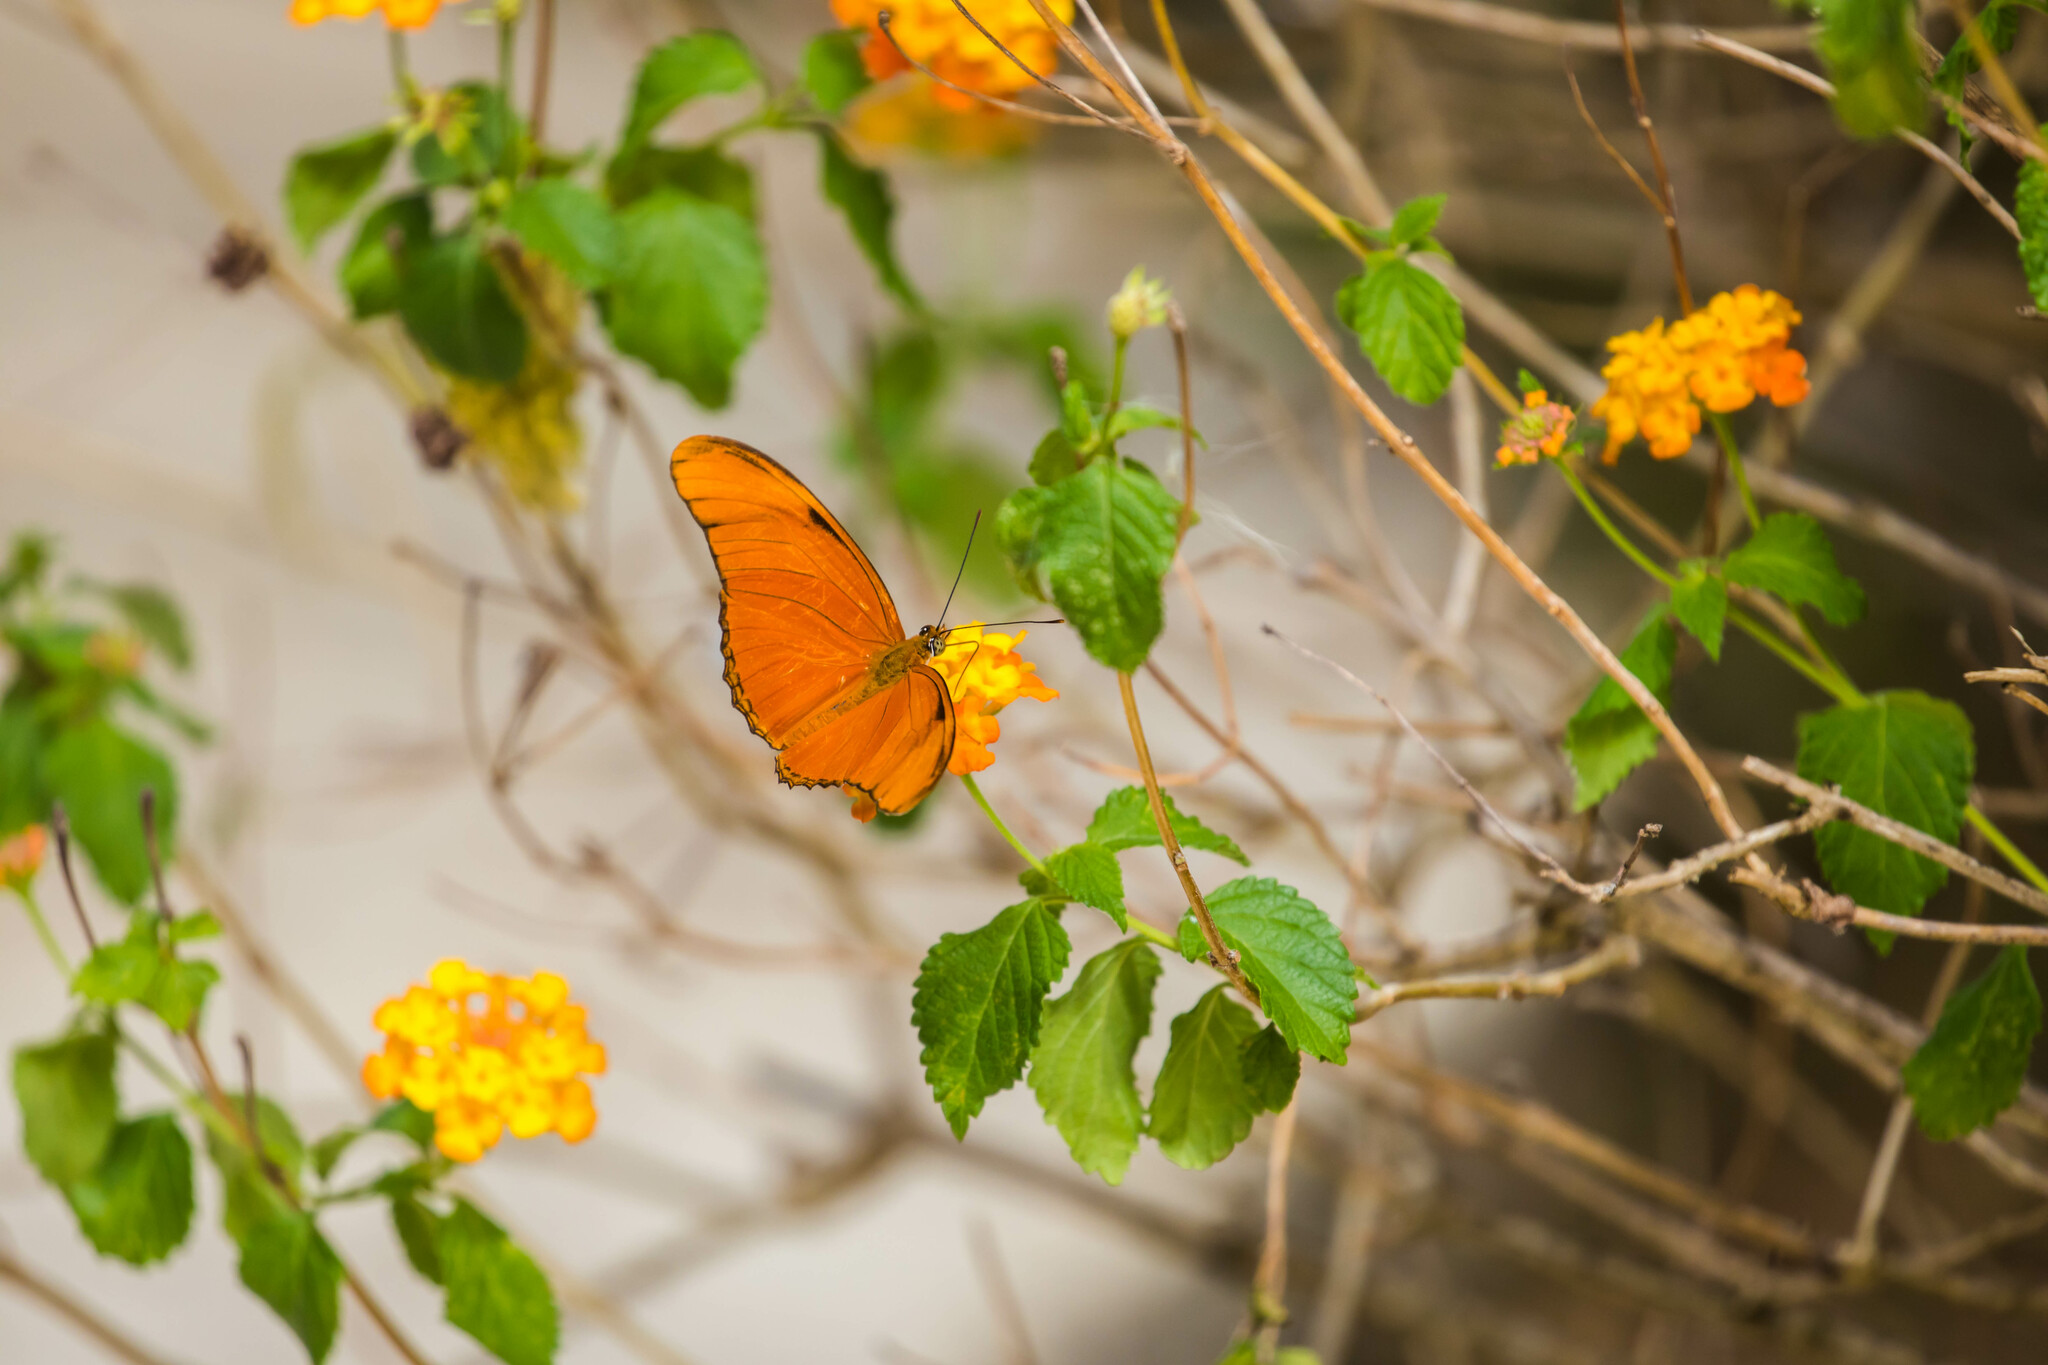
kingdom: Animalia
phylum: Arthropoda
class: Insecta
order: Lepidoptera
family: Nymphalidae
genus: Dryas
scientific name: Dryas iulia
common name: Flambeau
